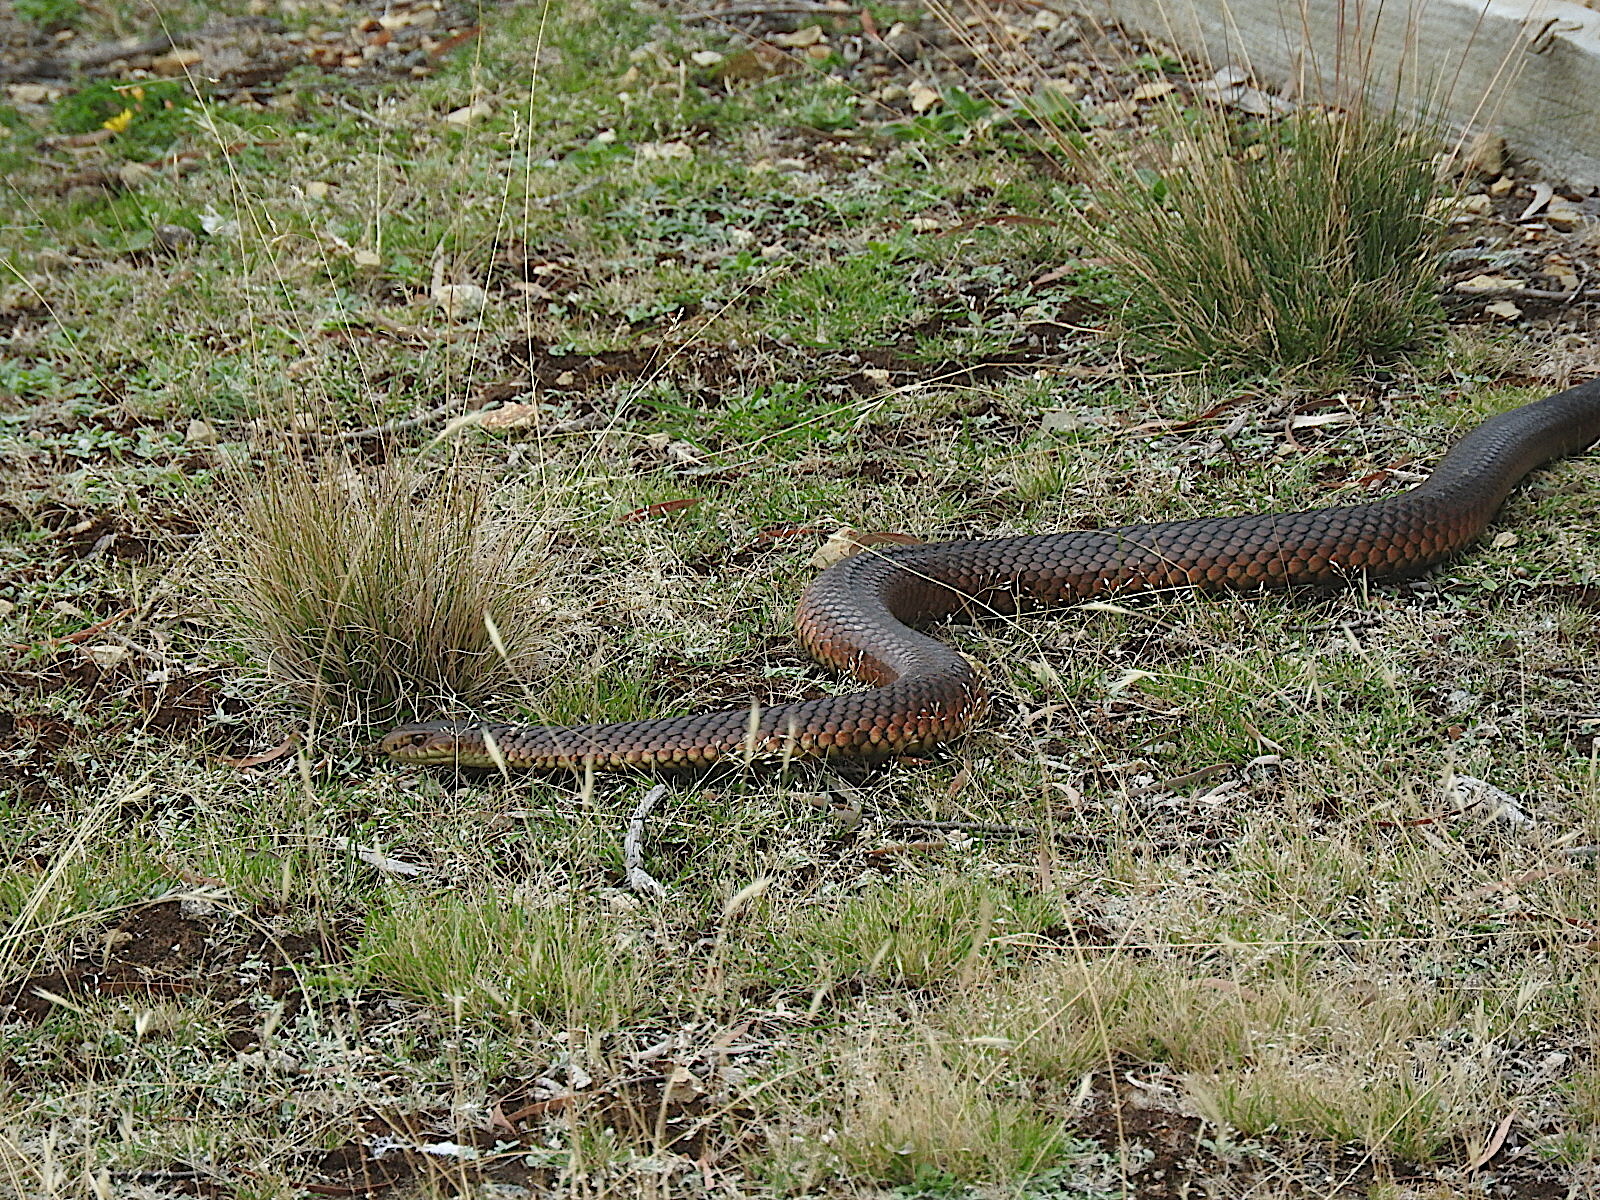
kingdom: Animalia
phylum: Chordata
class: Squamata
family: Elapidae
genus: Austrelaps
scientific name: Austrelaps superbus
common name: Copperhead snake
